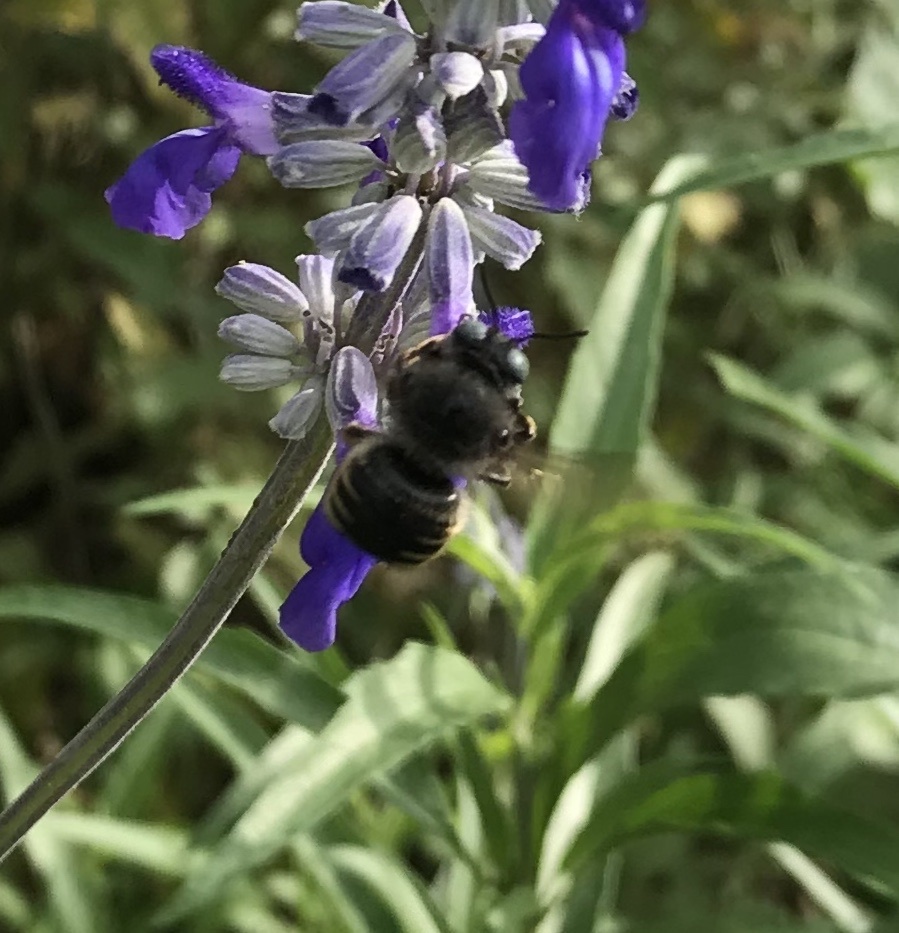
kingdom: Animalia
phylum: Arthropoda
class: Insecta
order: Hymenoptera
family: Apidae
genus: Xylocopa
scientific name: Xylocopa tabaniformis
